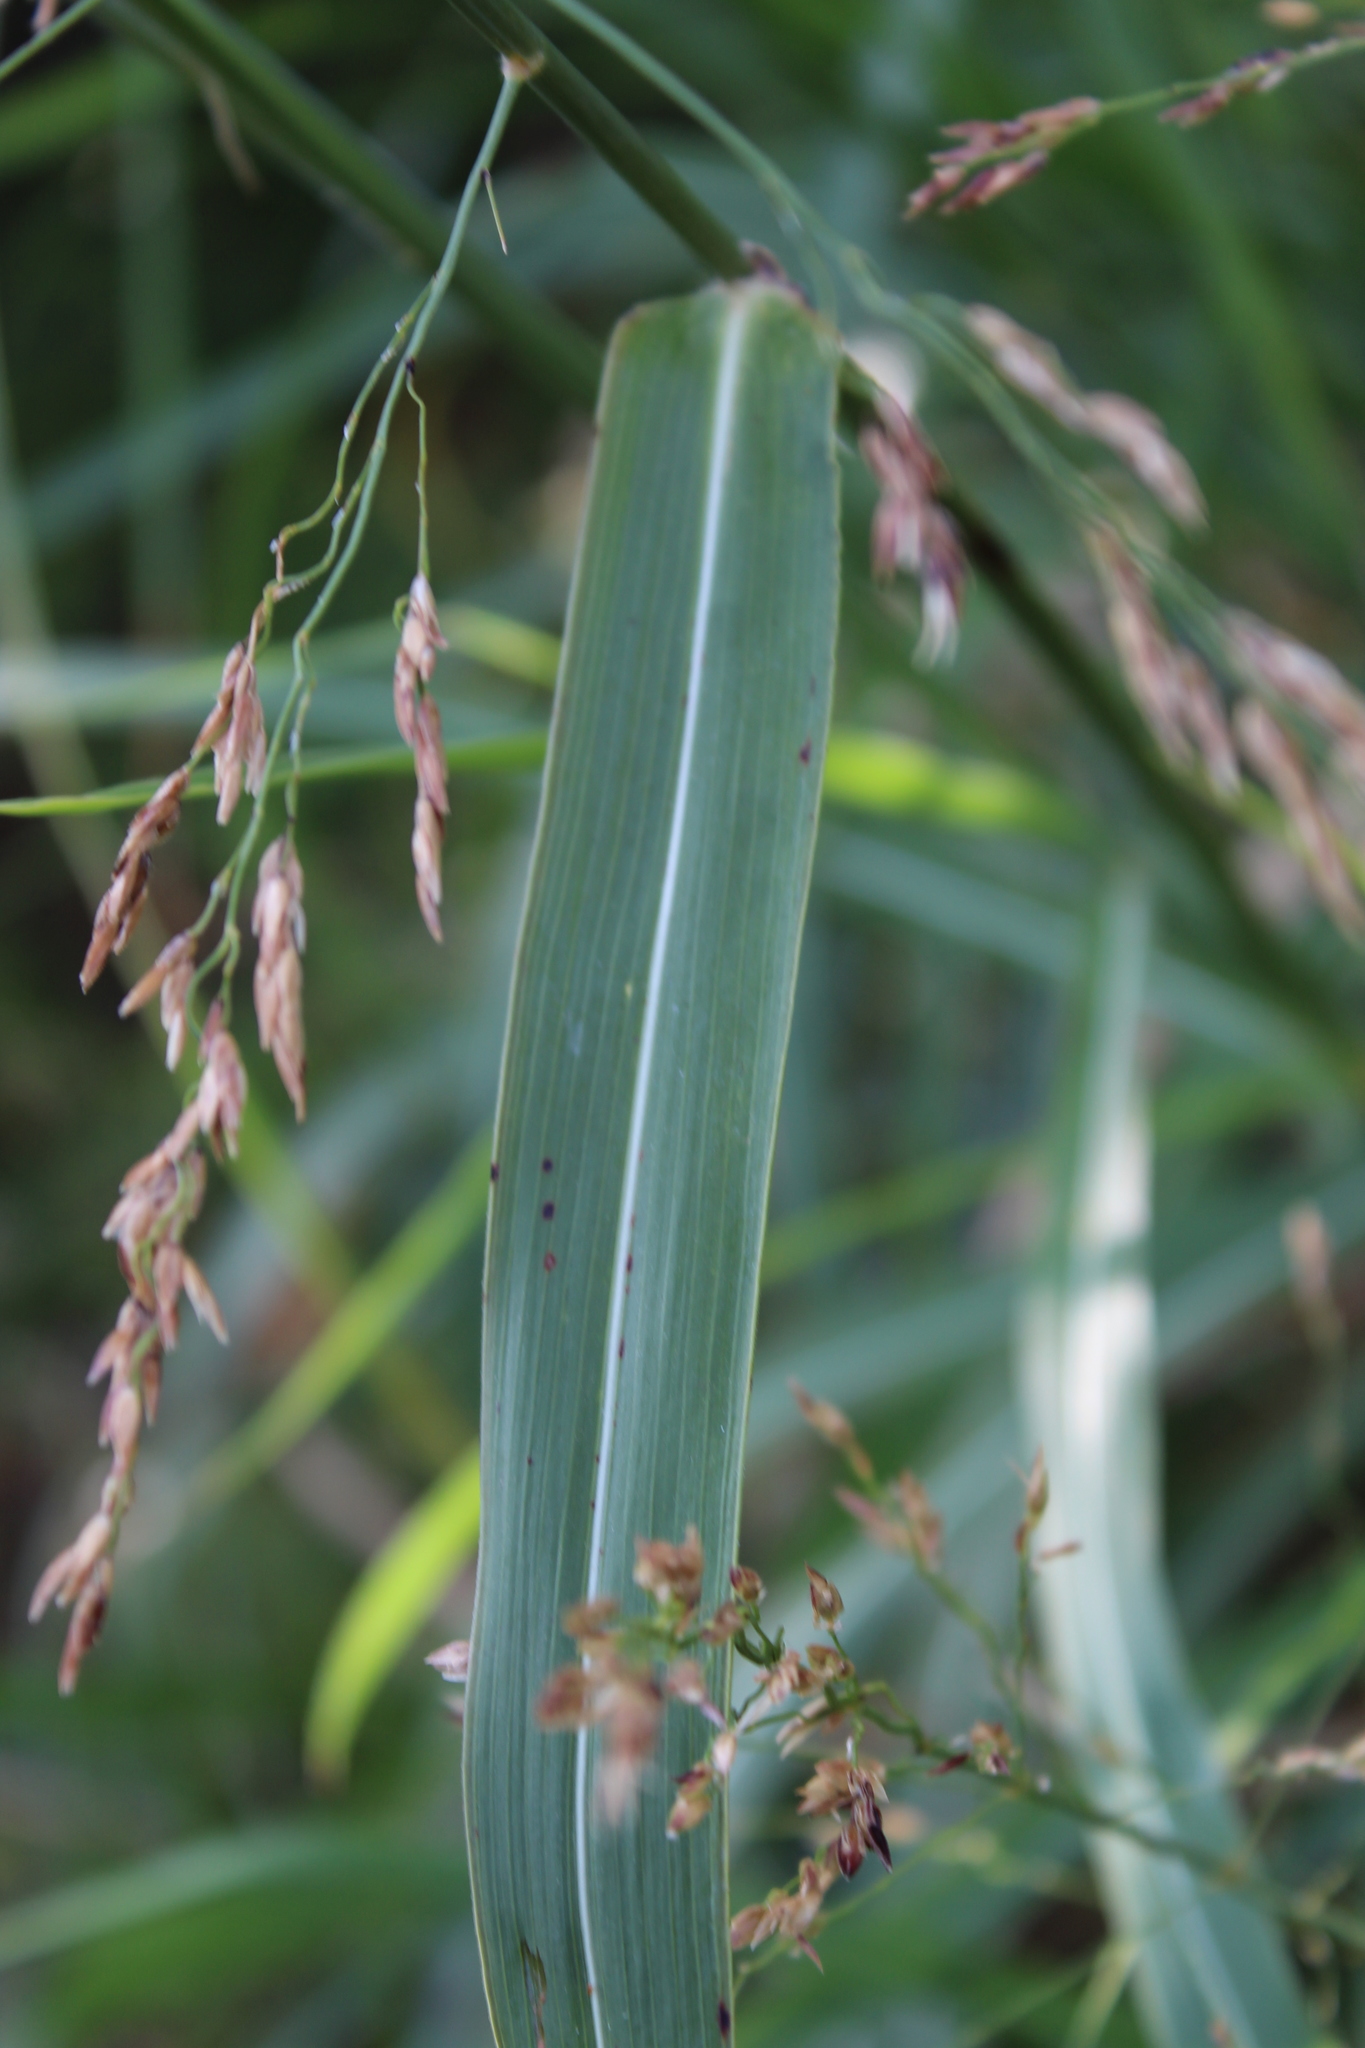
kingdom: Plantae
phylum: Tracheophyta
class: Liliopsida
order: Poales
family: Poaceae
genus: Sorghum
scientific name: Sorghum halepense
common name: Johnson-grass
